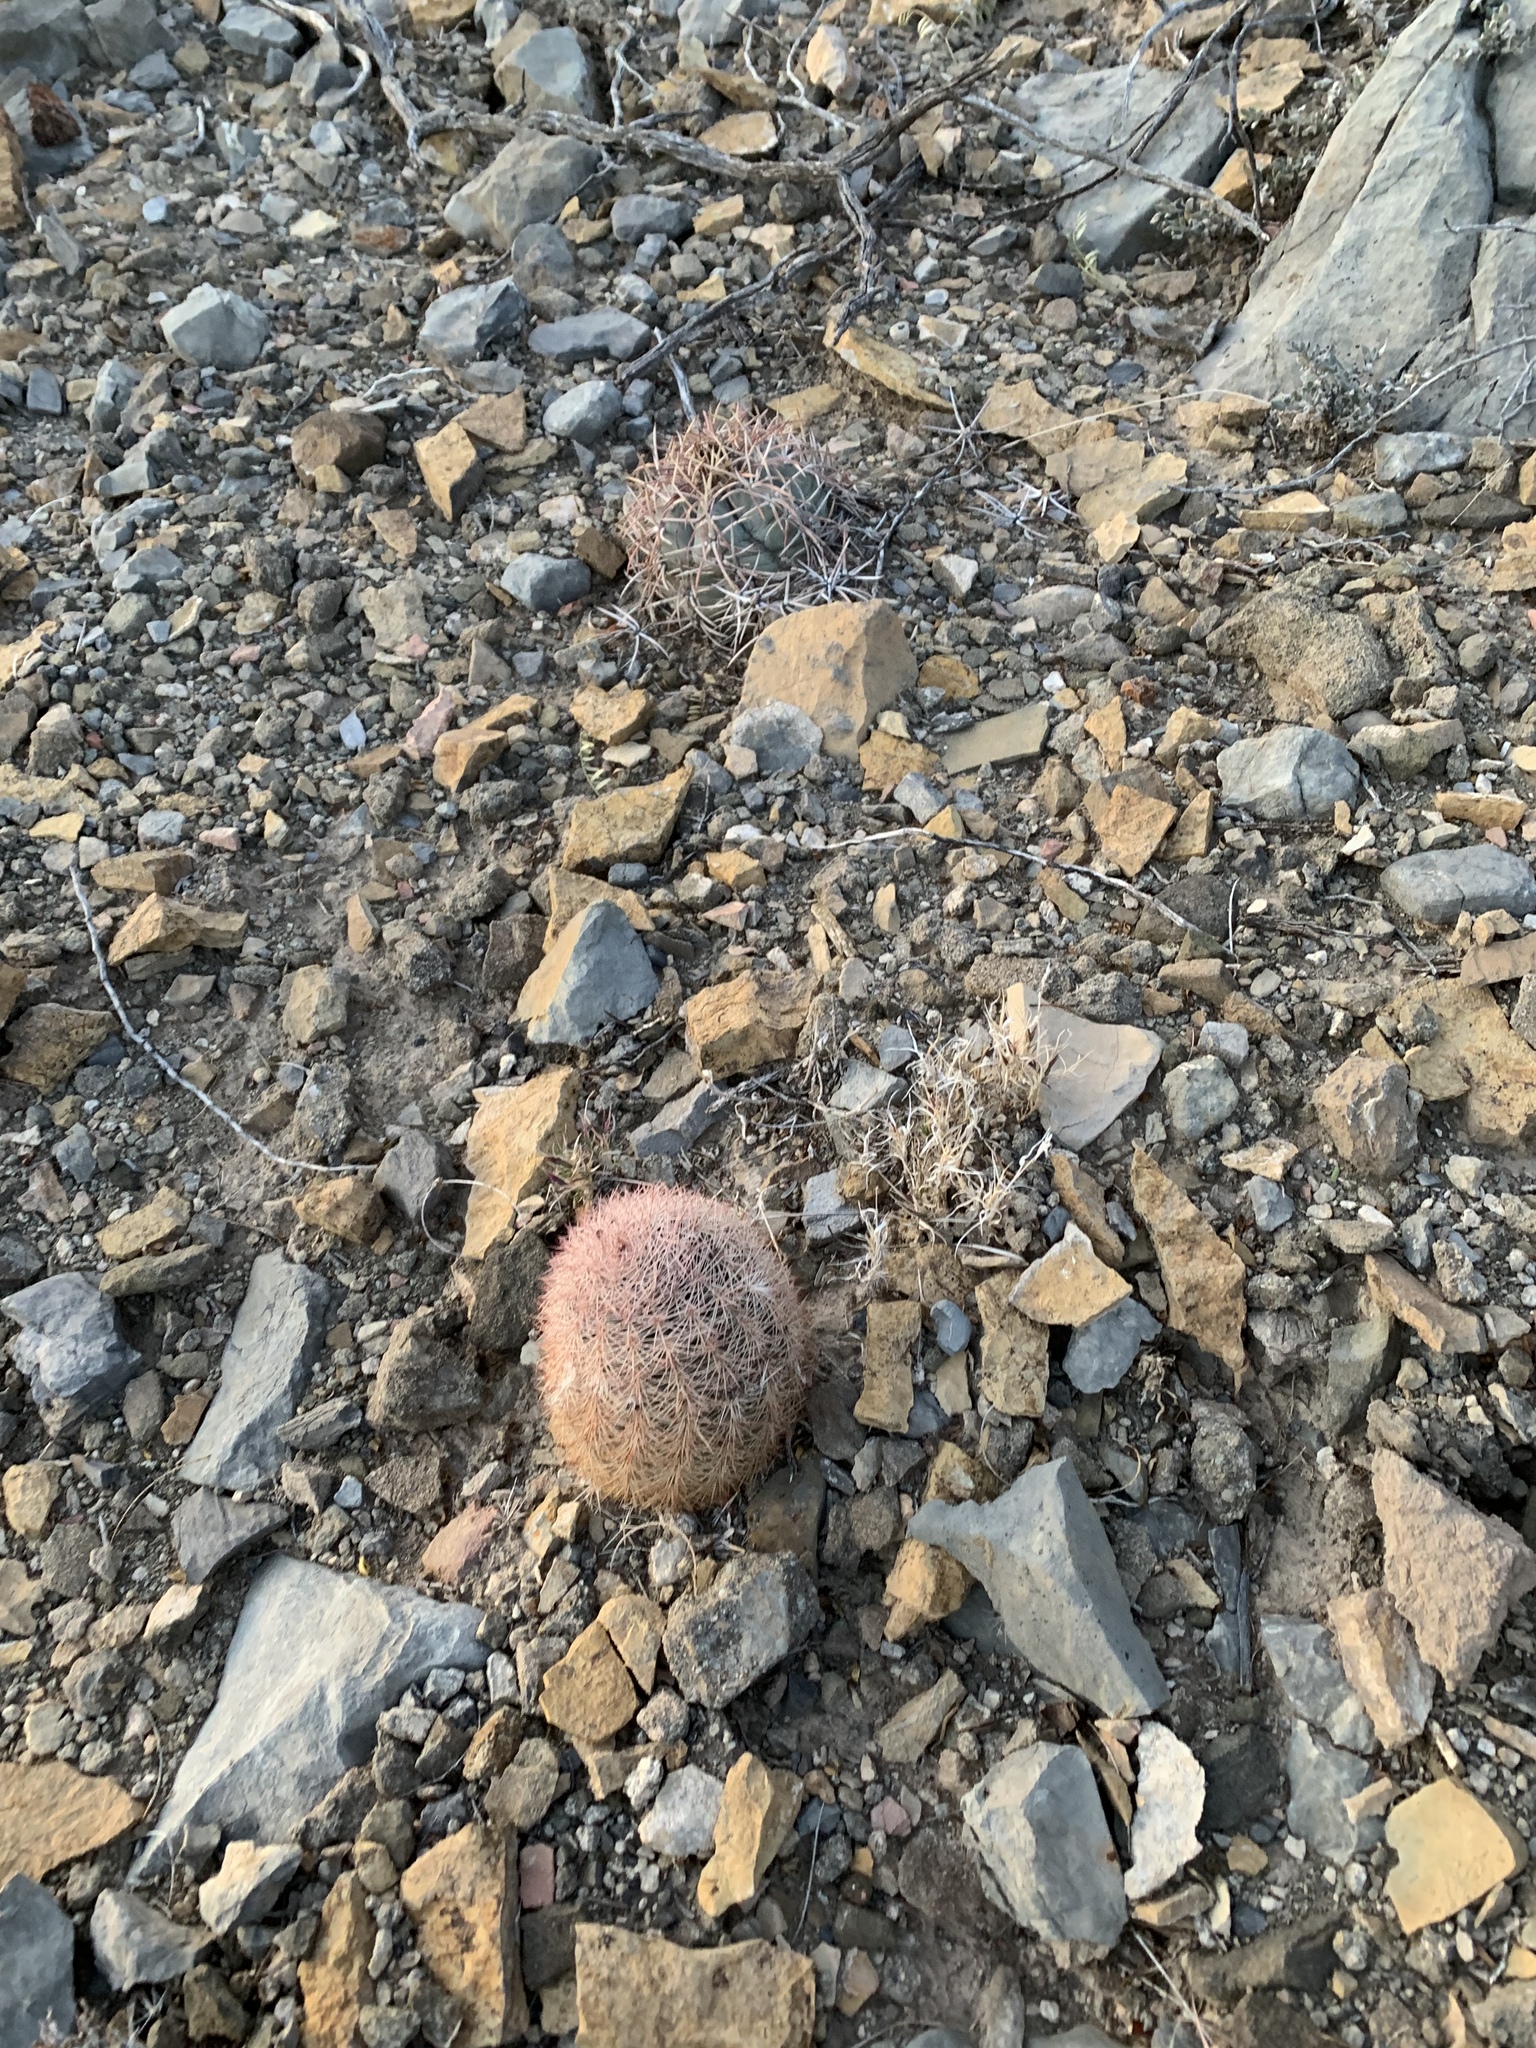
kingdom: Plantae
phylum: Tracheophyta
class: Magnoliopsida
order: Caryophyllales
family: Cactaceae
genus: Echinocereus
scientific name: Echinocereus dasyacanthus
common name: Spiny hedgehog cactus
